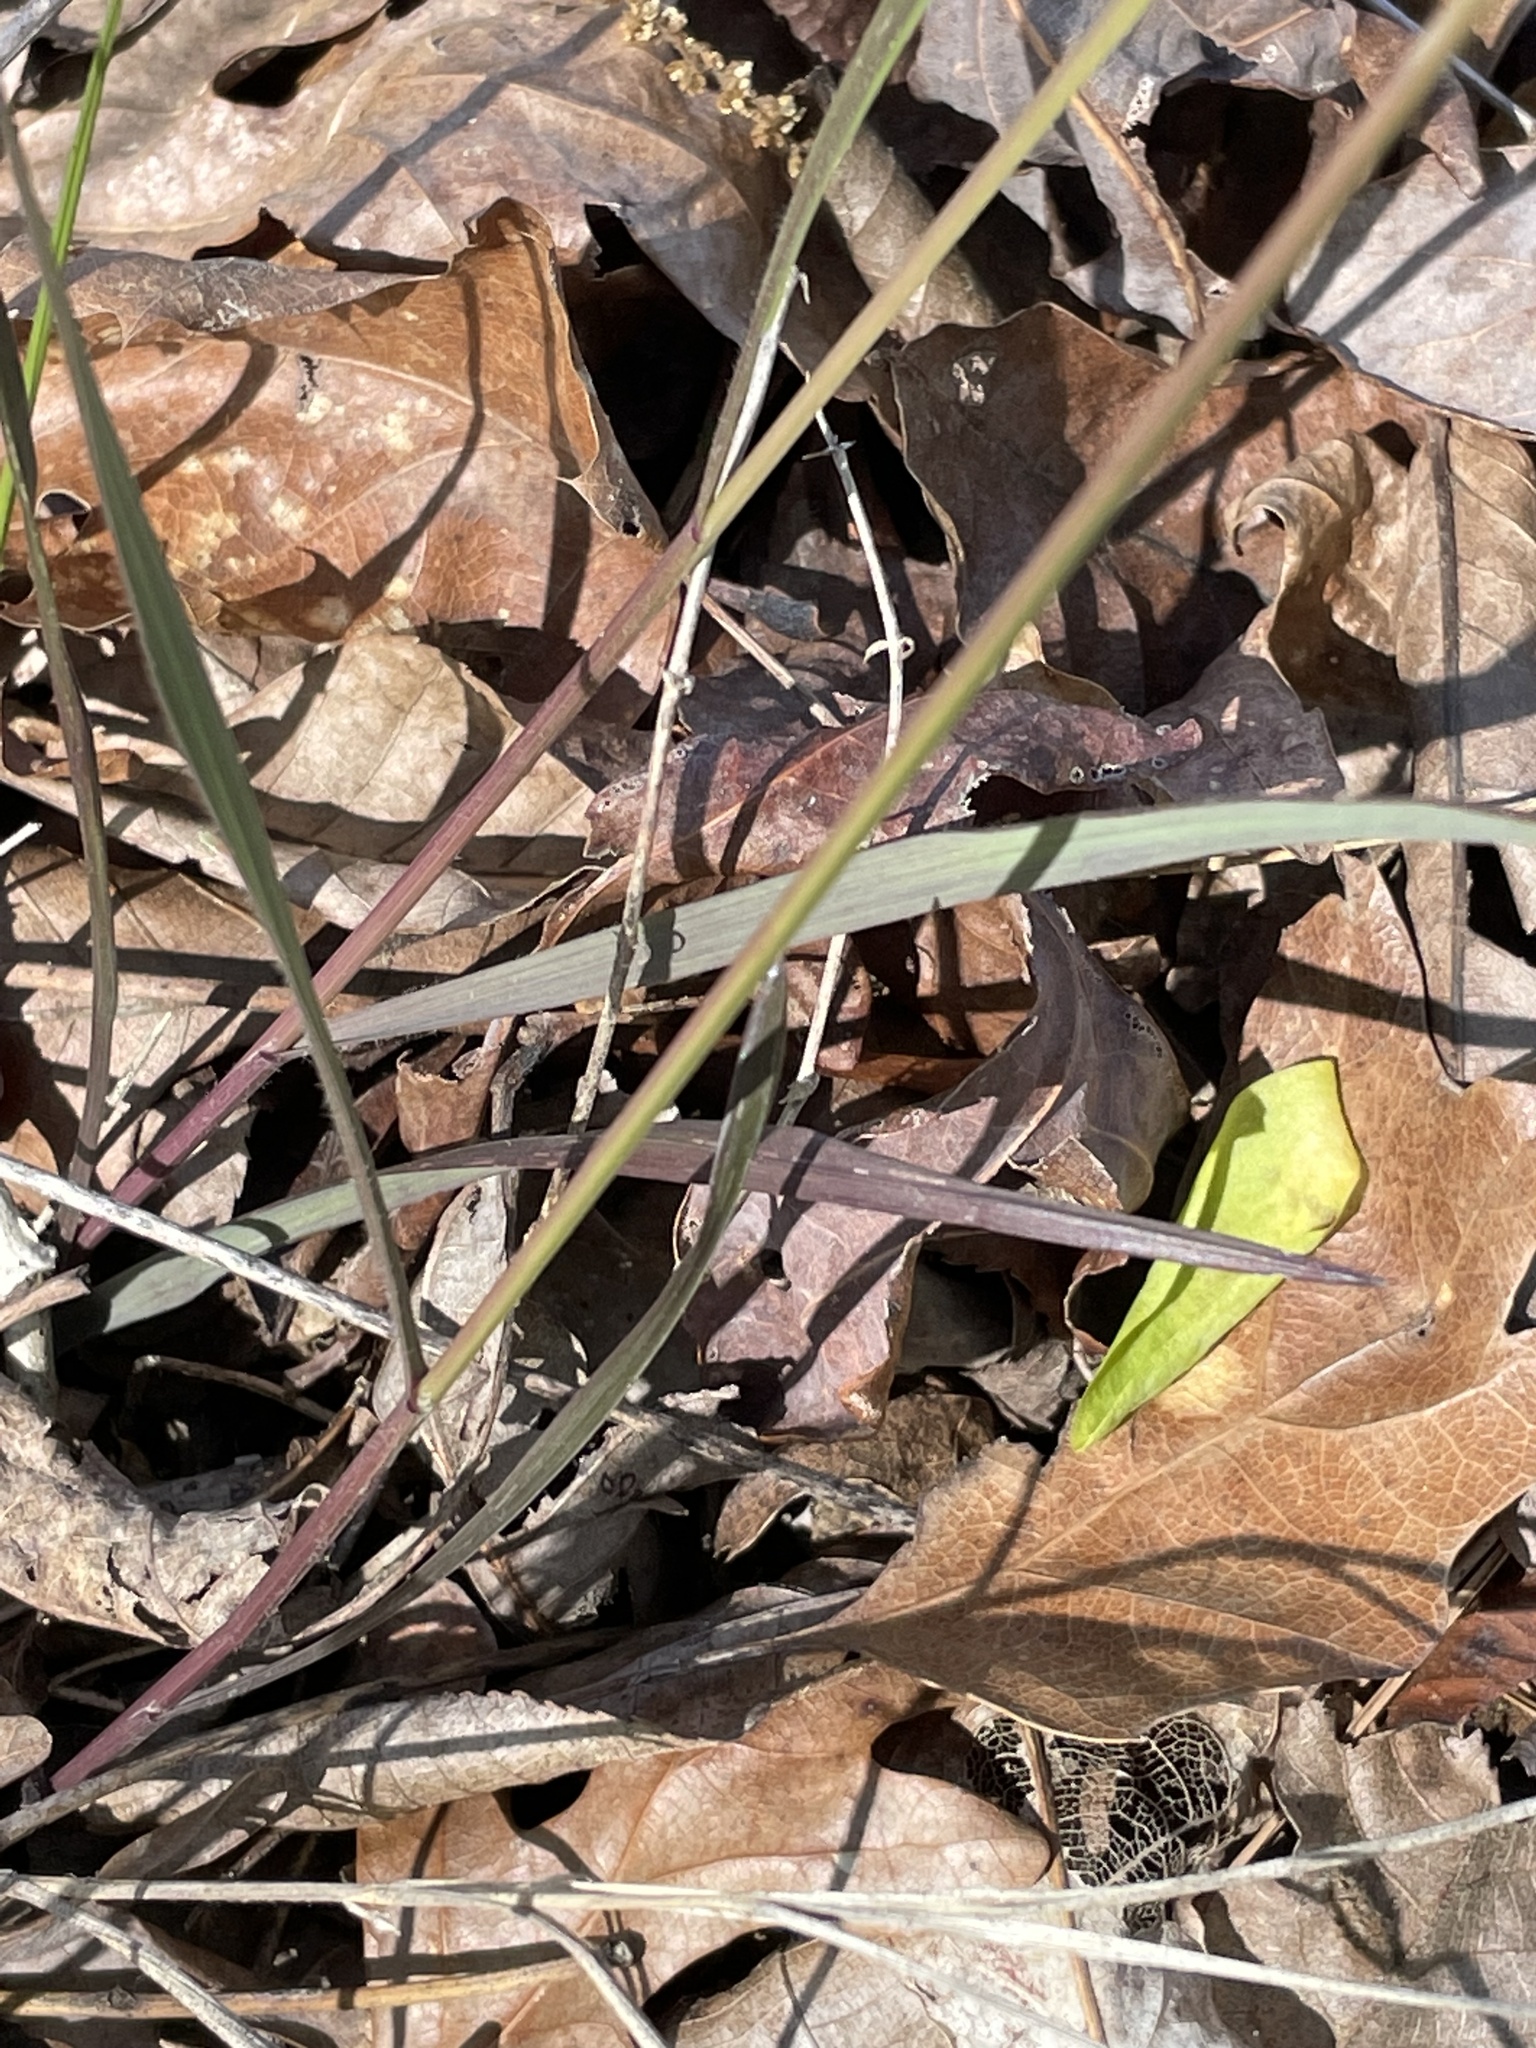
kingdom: Plantae
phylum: Tracheophyta
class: Liliopsida
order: Poales
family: Poaceae
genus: Melica
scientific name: Melica mutica
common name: Two-flower melic
